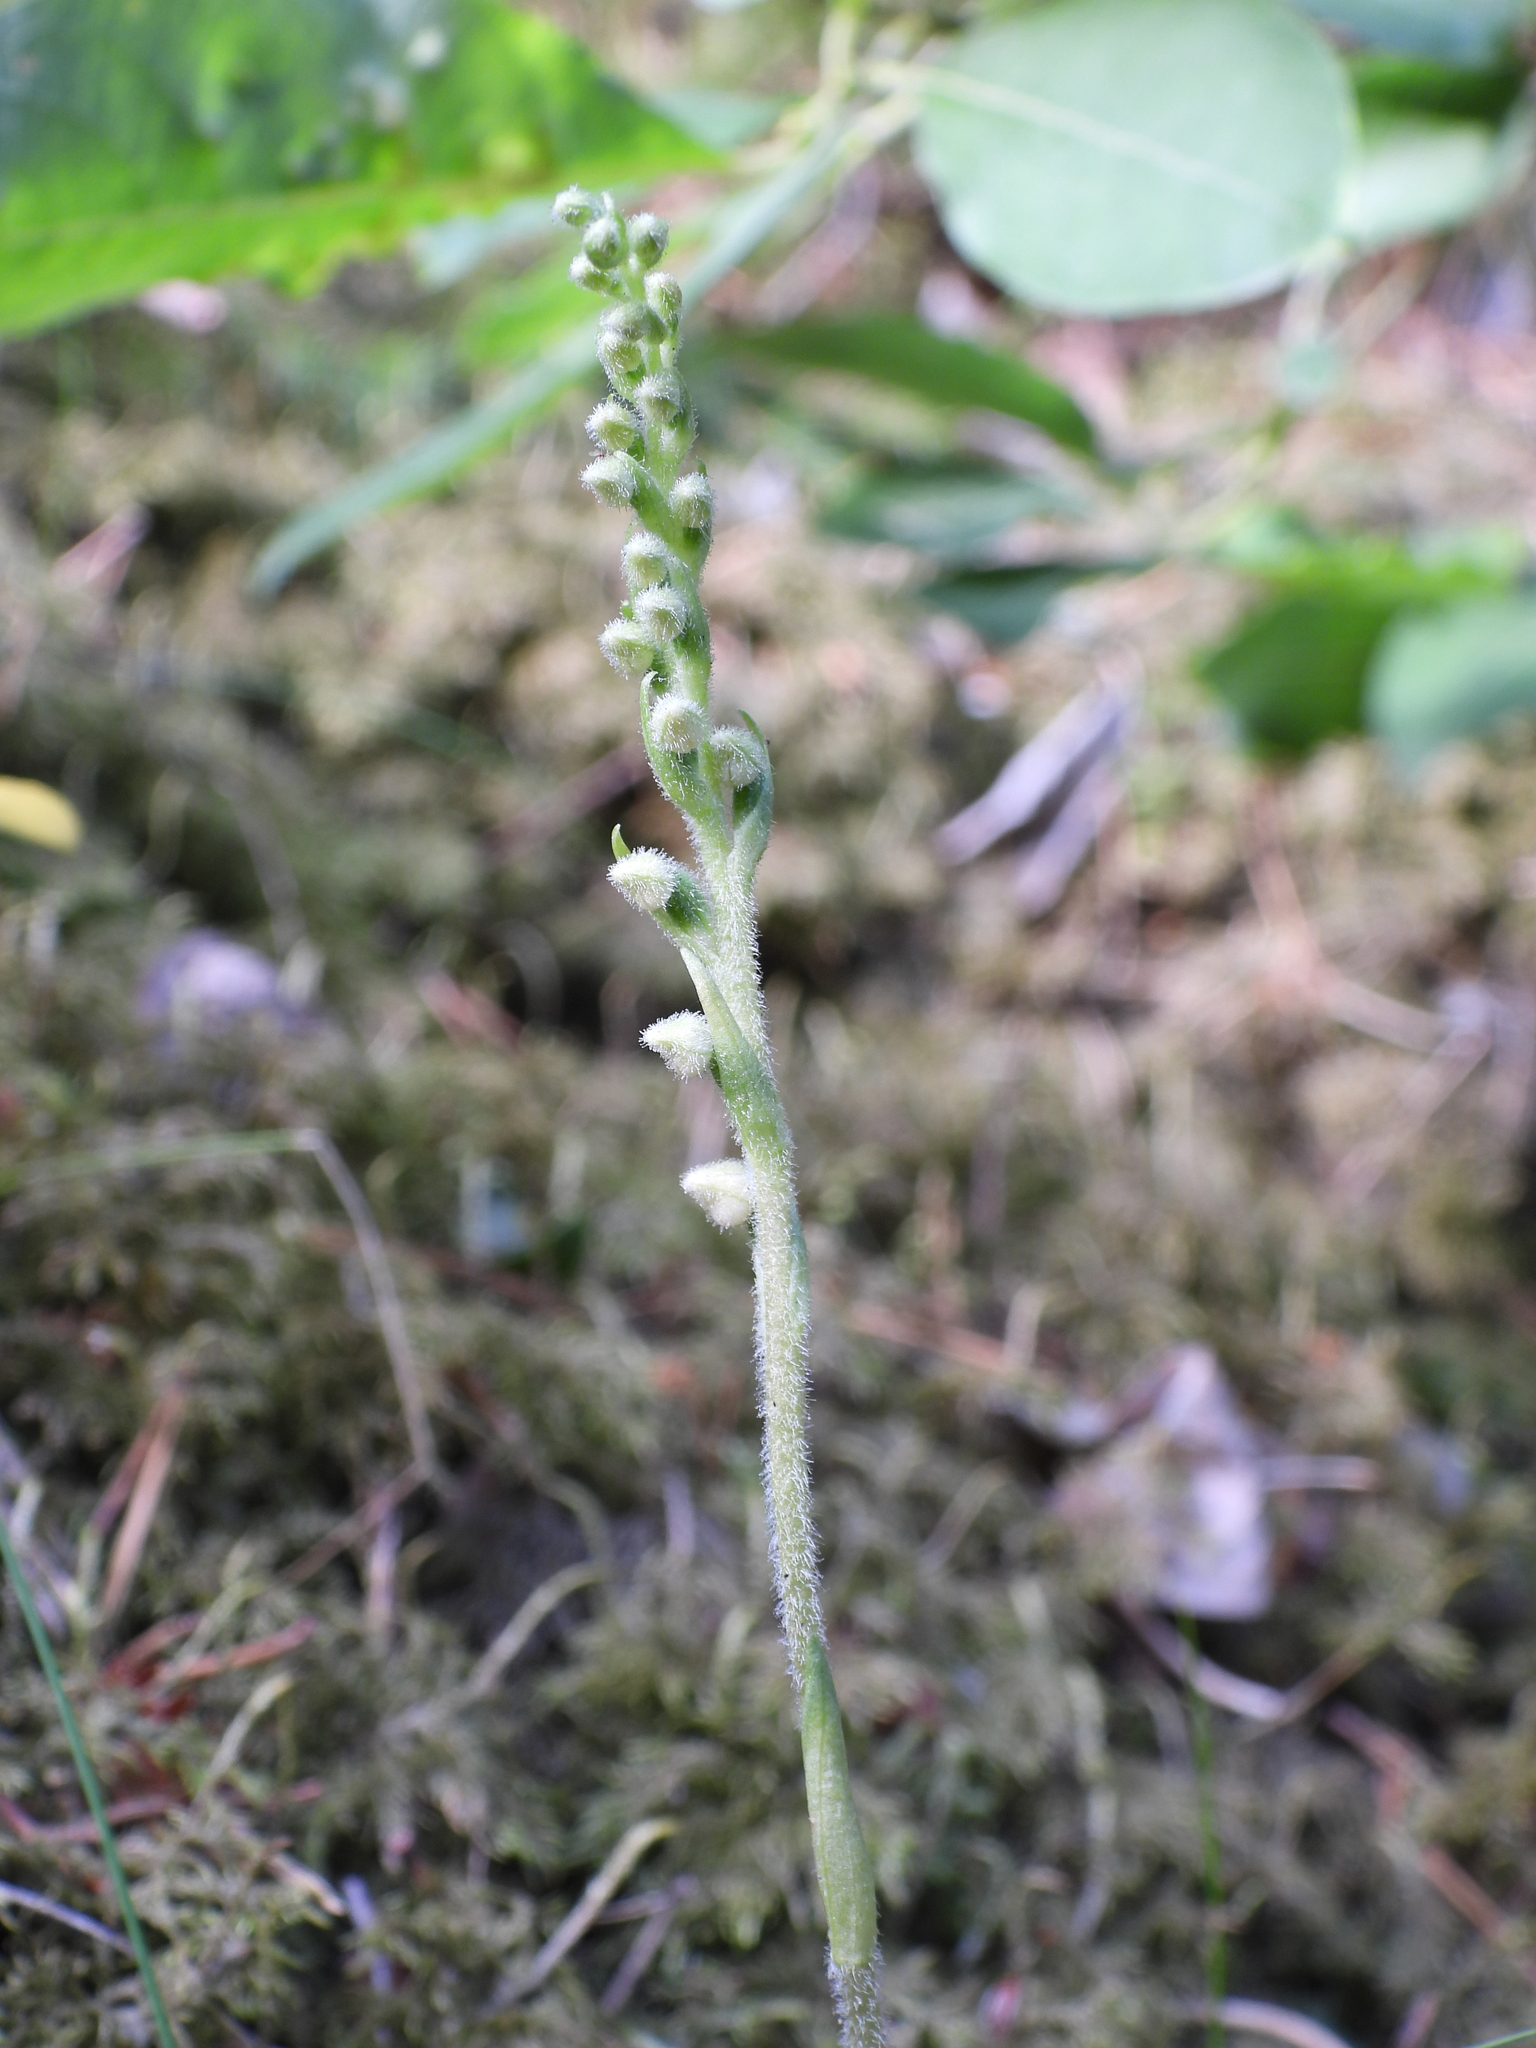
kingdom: Plantae
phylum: Tracheophyta
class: Liliopsida
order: Asparagales
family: Orchidaceae
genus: Goodyera
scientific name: Goodyera repens
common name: Creeping lady's-tresses
